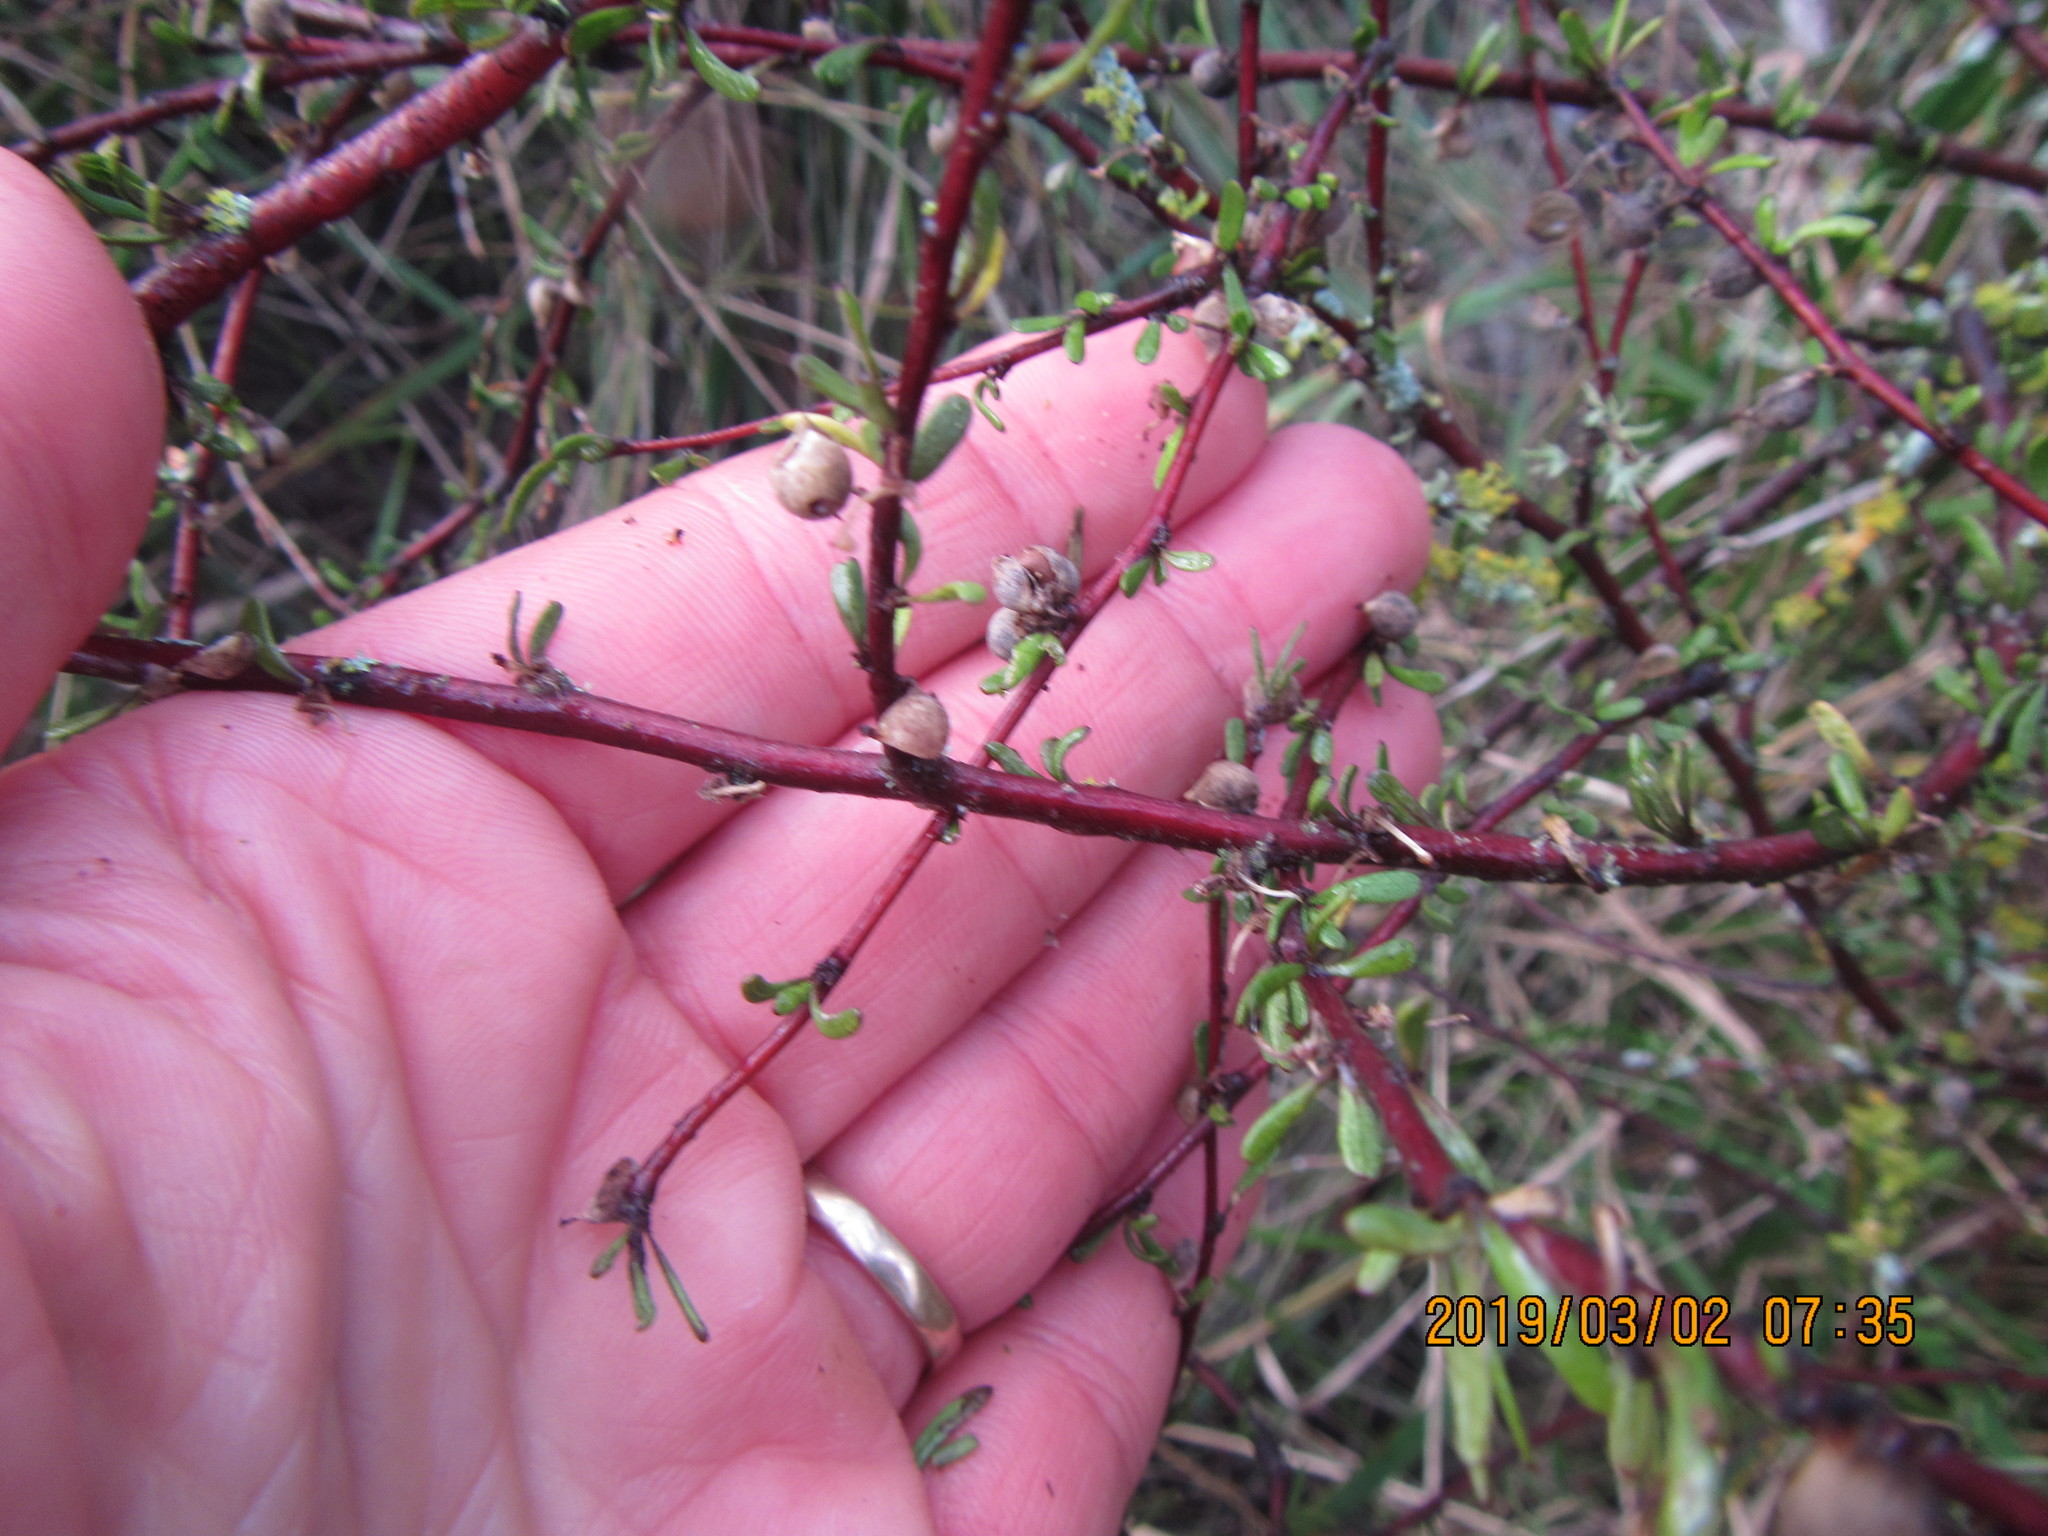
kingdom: Plantae
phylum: Tracheophyta
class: Magnoliopsida
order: Malvales
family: Malvaceae
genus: Plagianthus
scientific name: Plagianthus divaricatus
